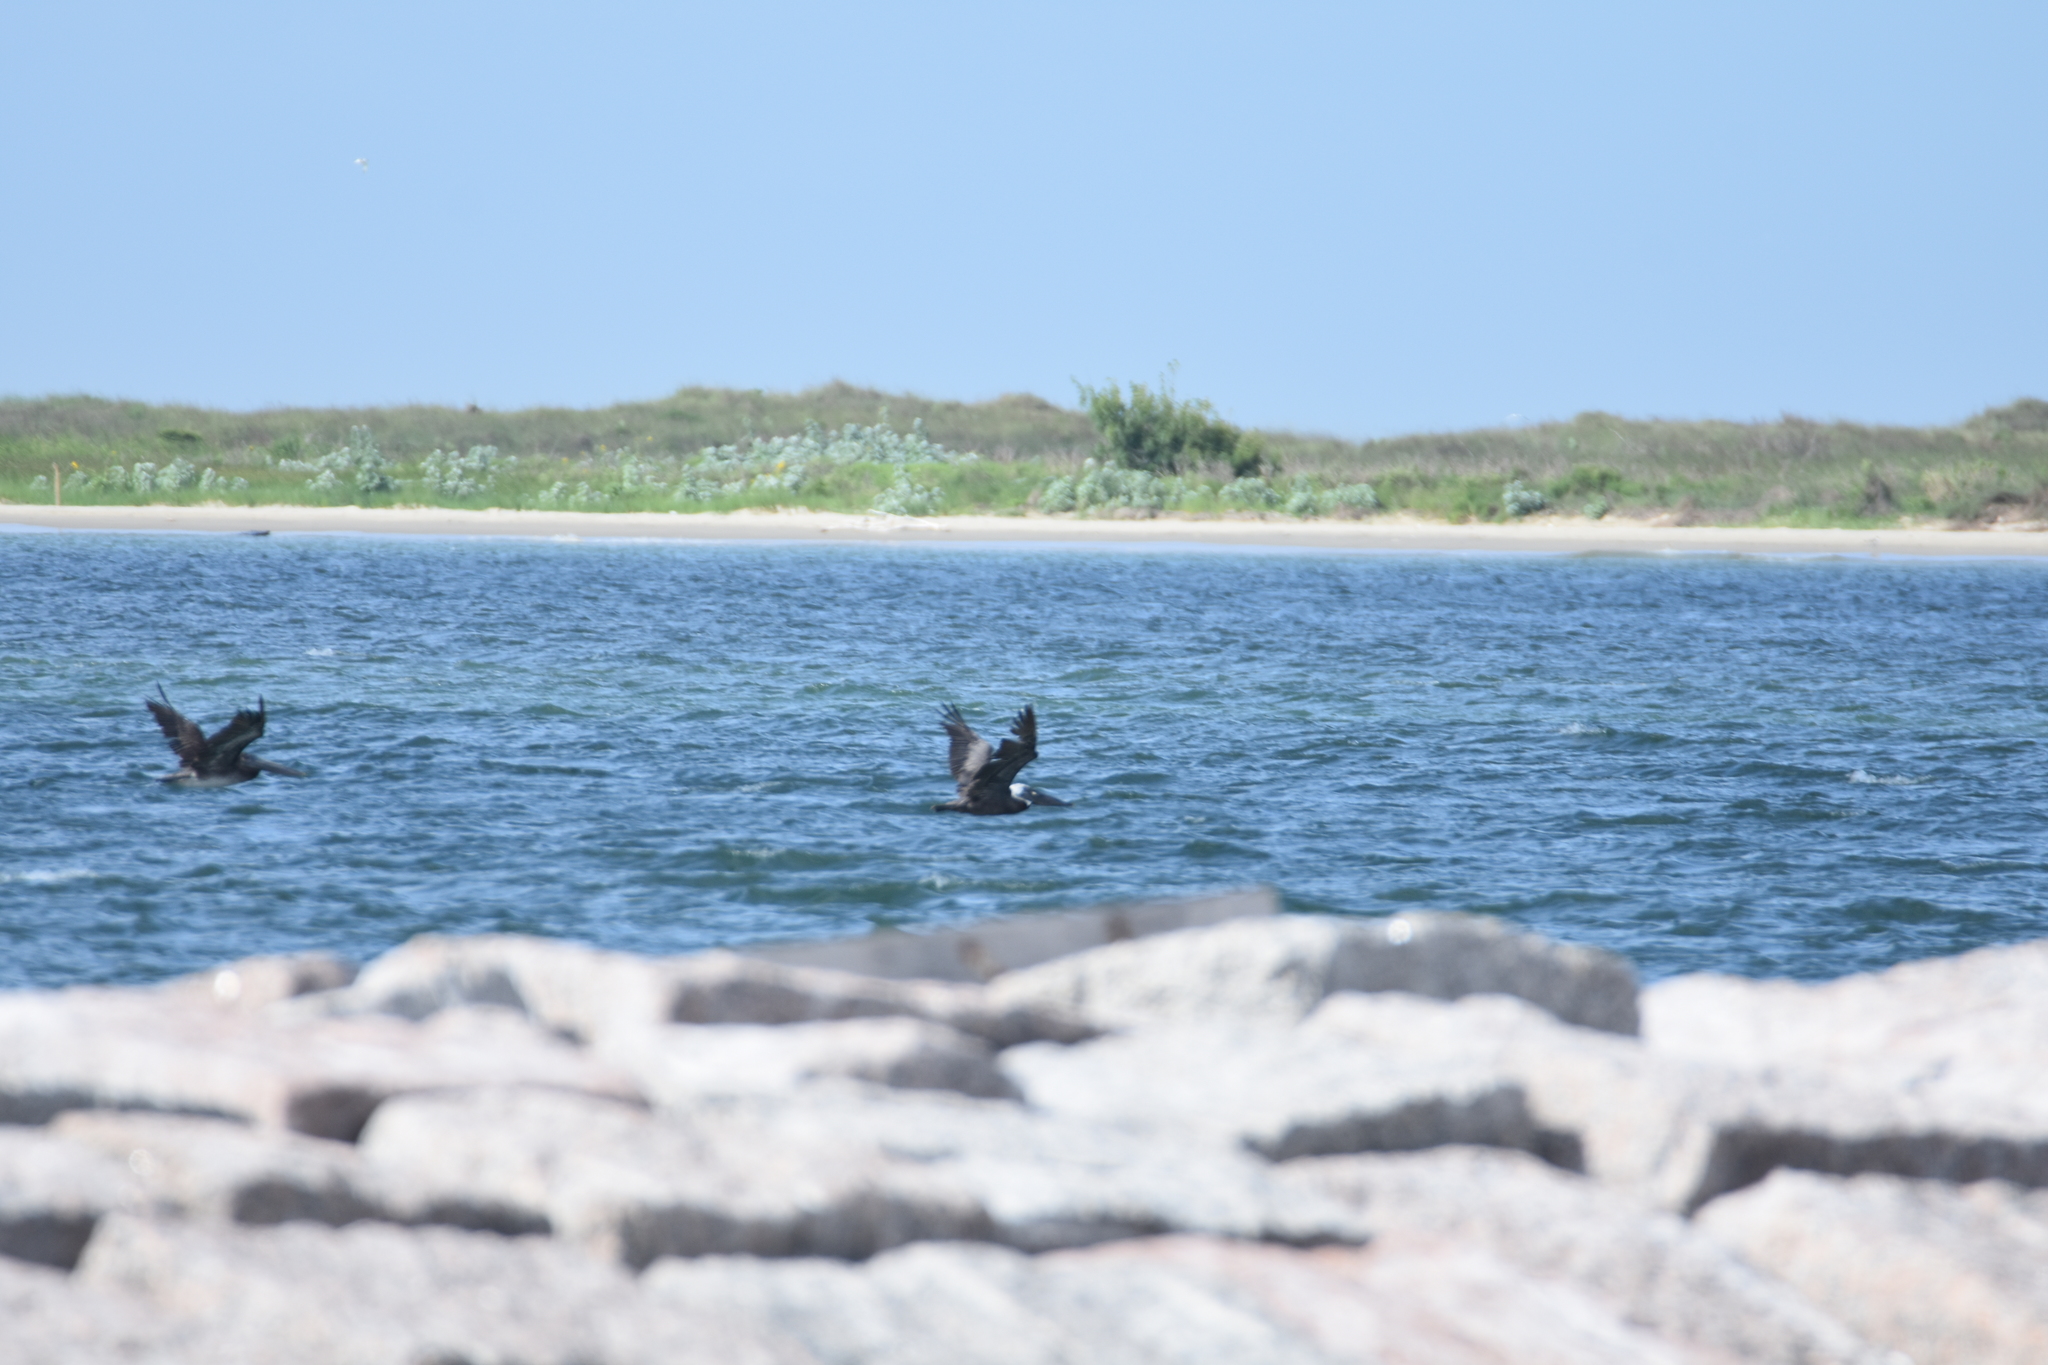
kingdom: Animalia
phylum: Chordata
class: Aves
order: Pelecaniformes
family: Pelecanidae
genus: Pelecanus
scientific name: Pelecanus occidentalis
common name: Brown pelican
